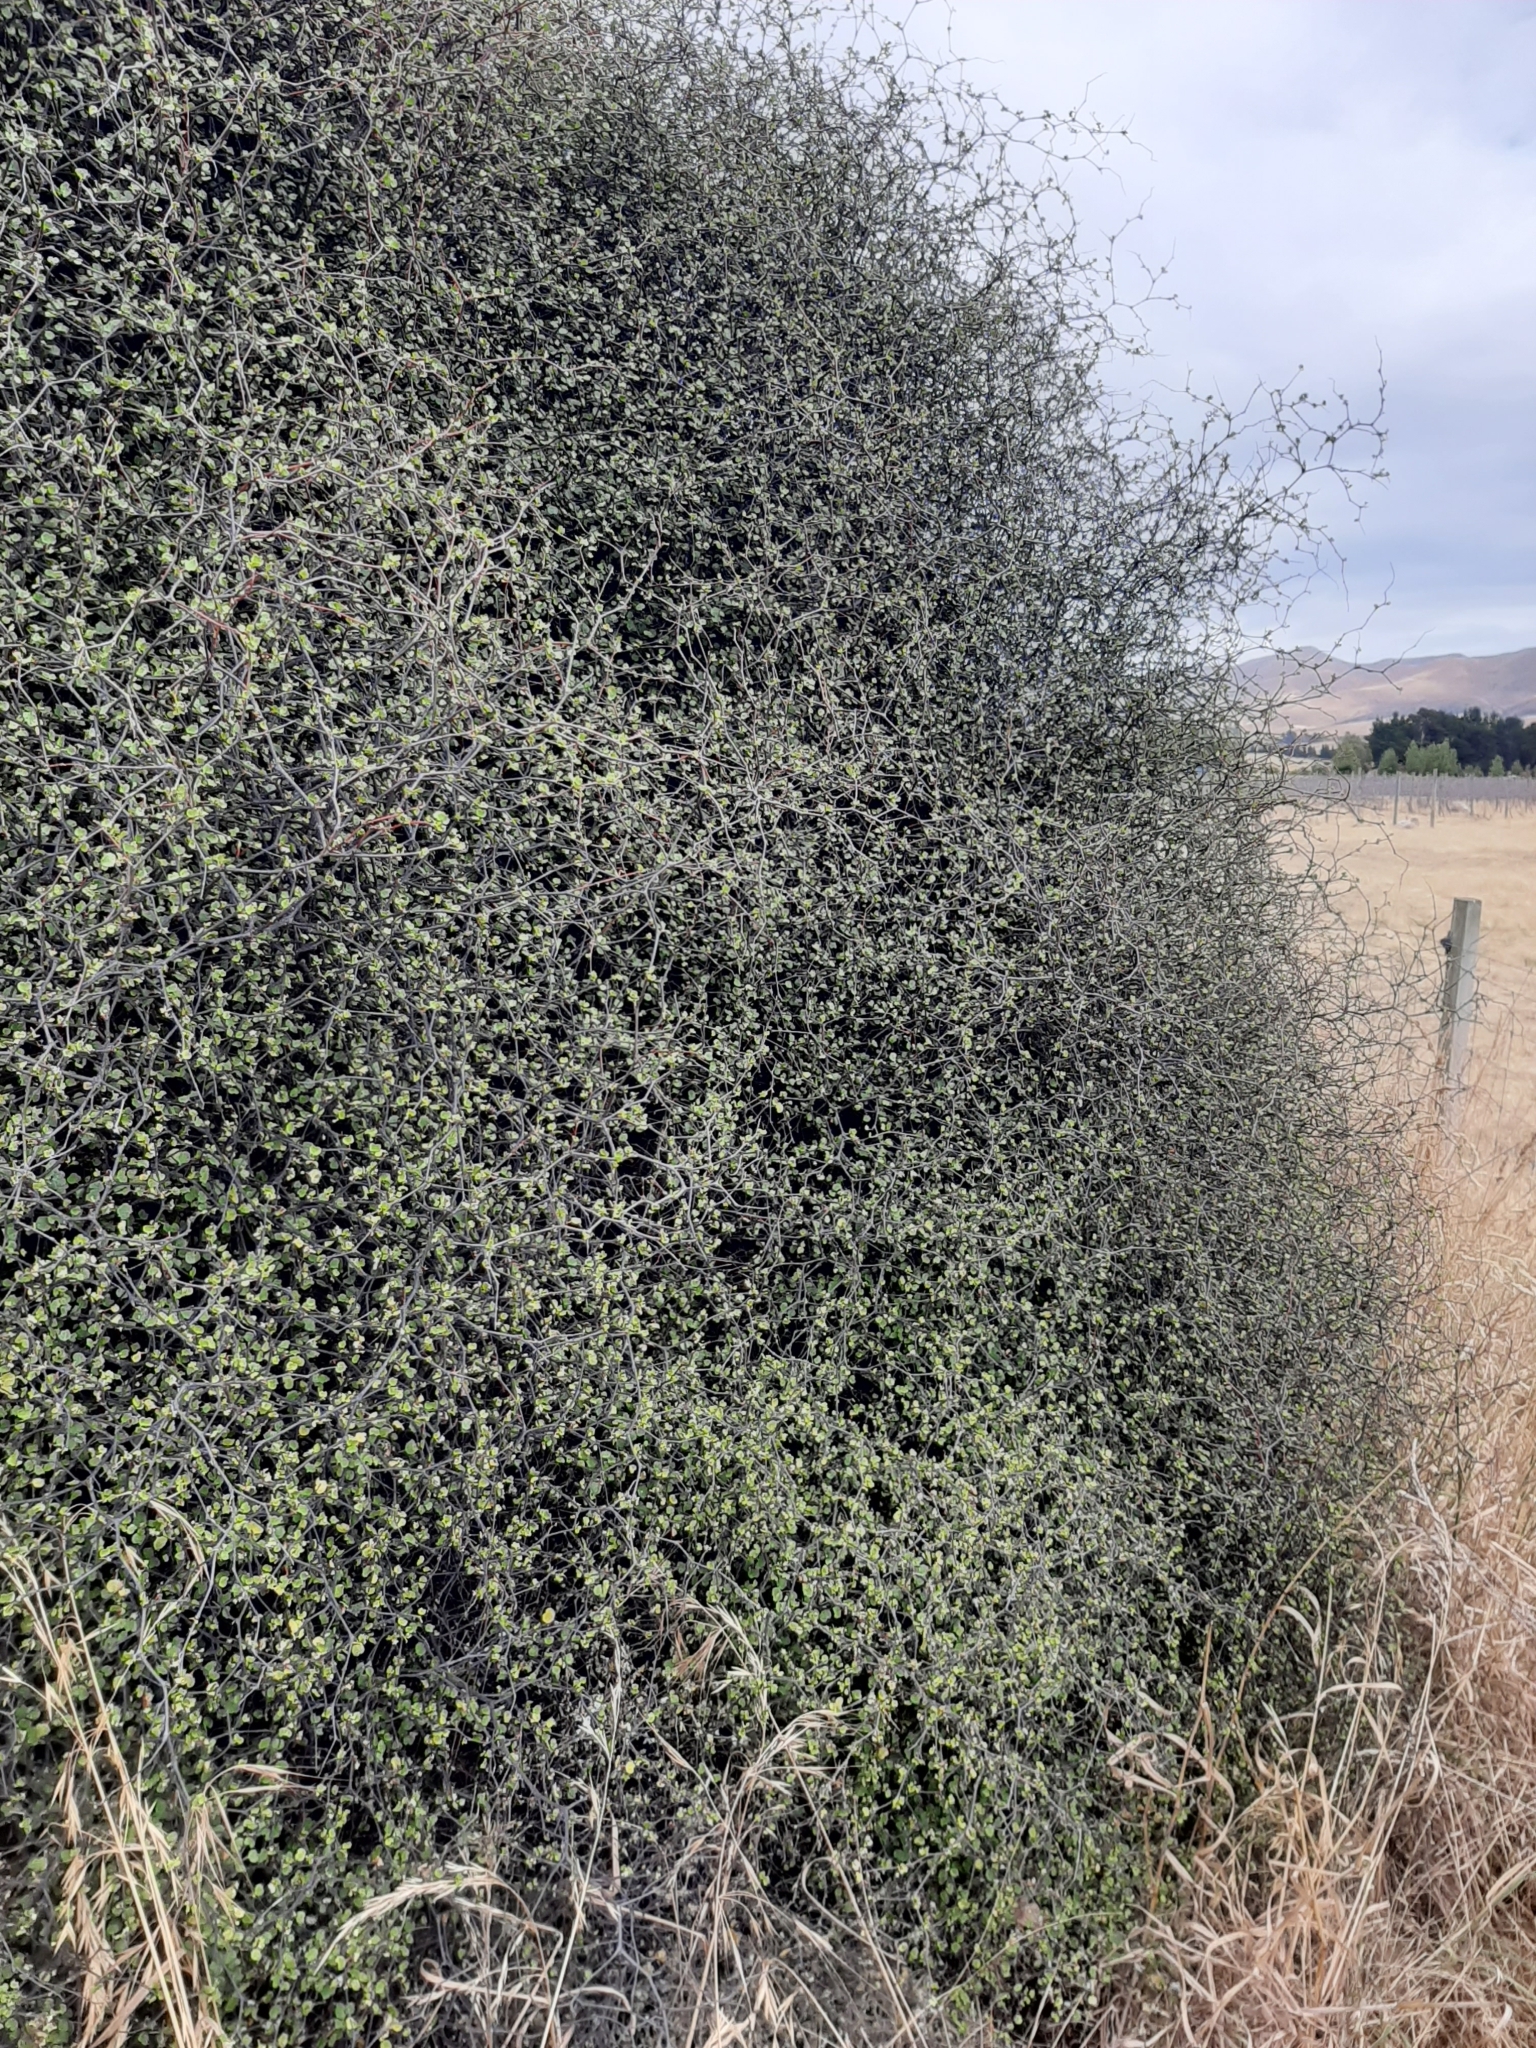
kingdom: Plantae
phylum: Tracheophyta
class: Magnoliopsida
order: Caryophyllales
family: Polygonaceae
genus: Muehlenbeckia
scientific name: Muehlenbeckia astonii
